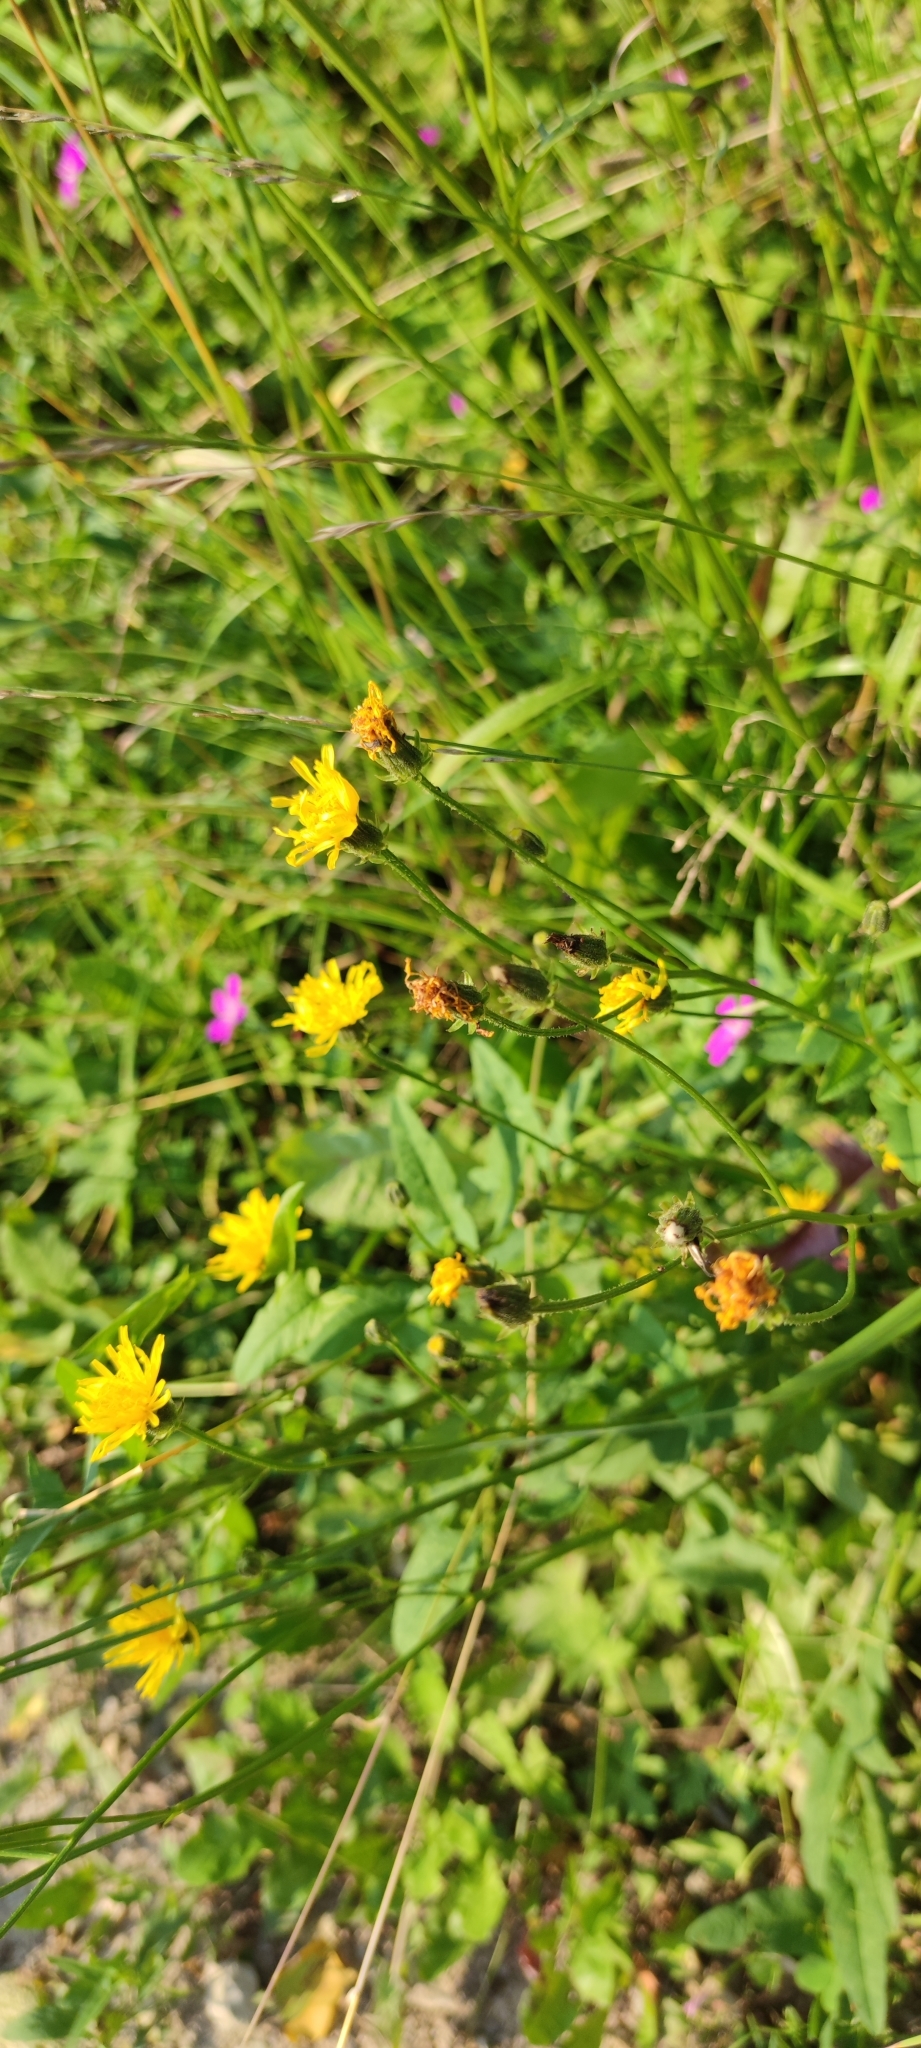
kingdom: Plantae
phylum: Tracheophyta
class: Magnoliopsida
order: Asterales
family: Asteraceae
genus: Scorzoneroides
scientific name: Scorzoneroides autumnalis
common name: Autumn hawkbit
